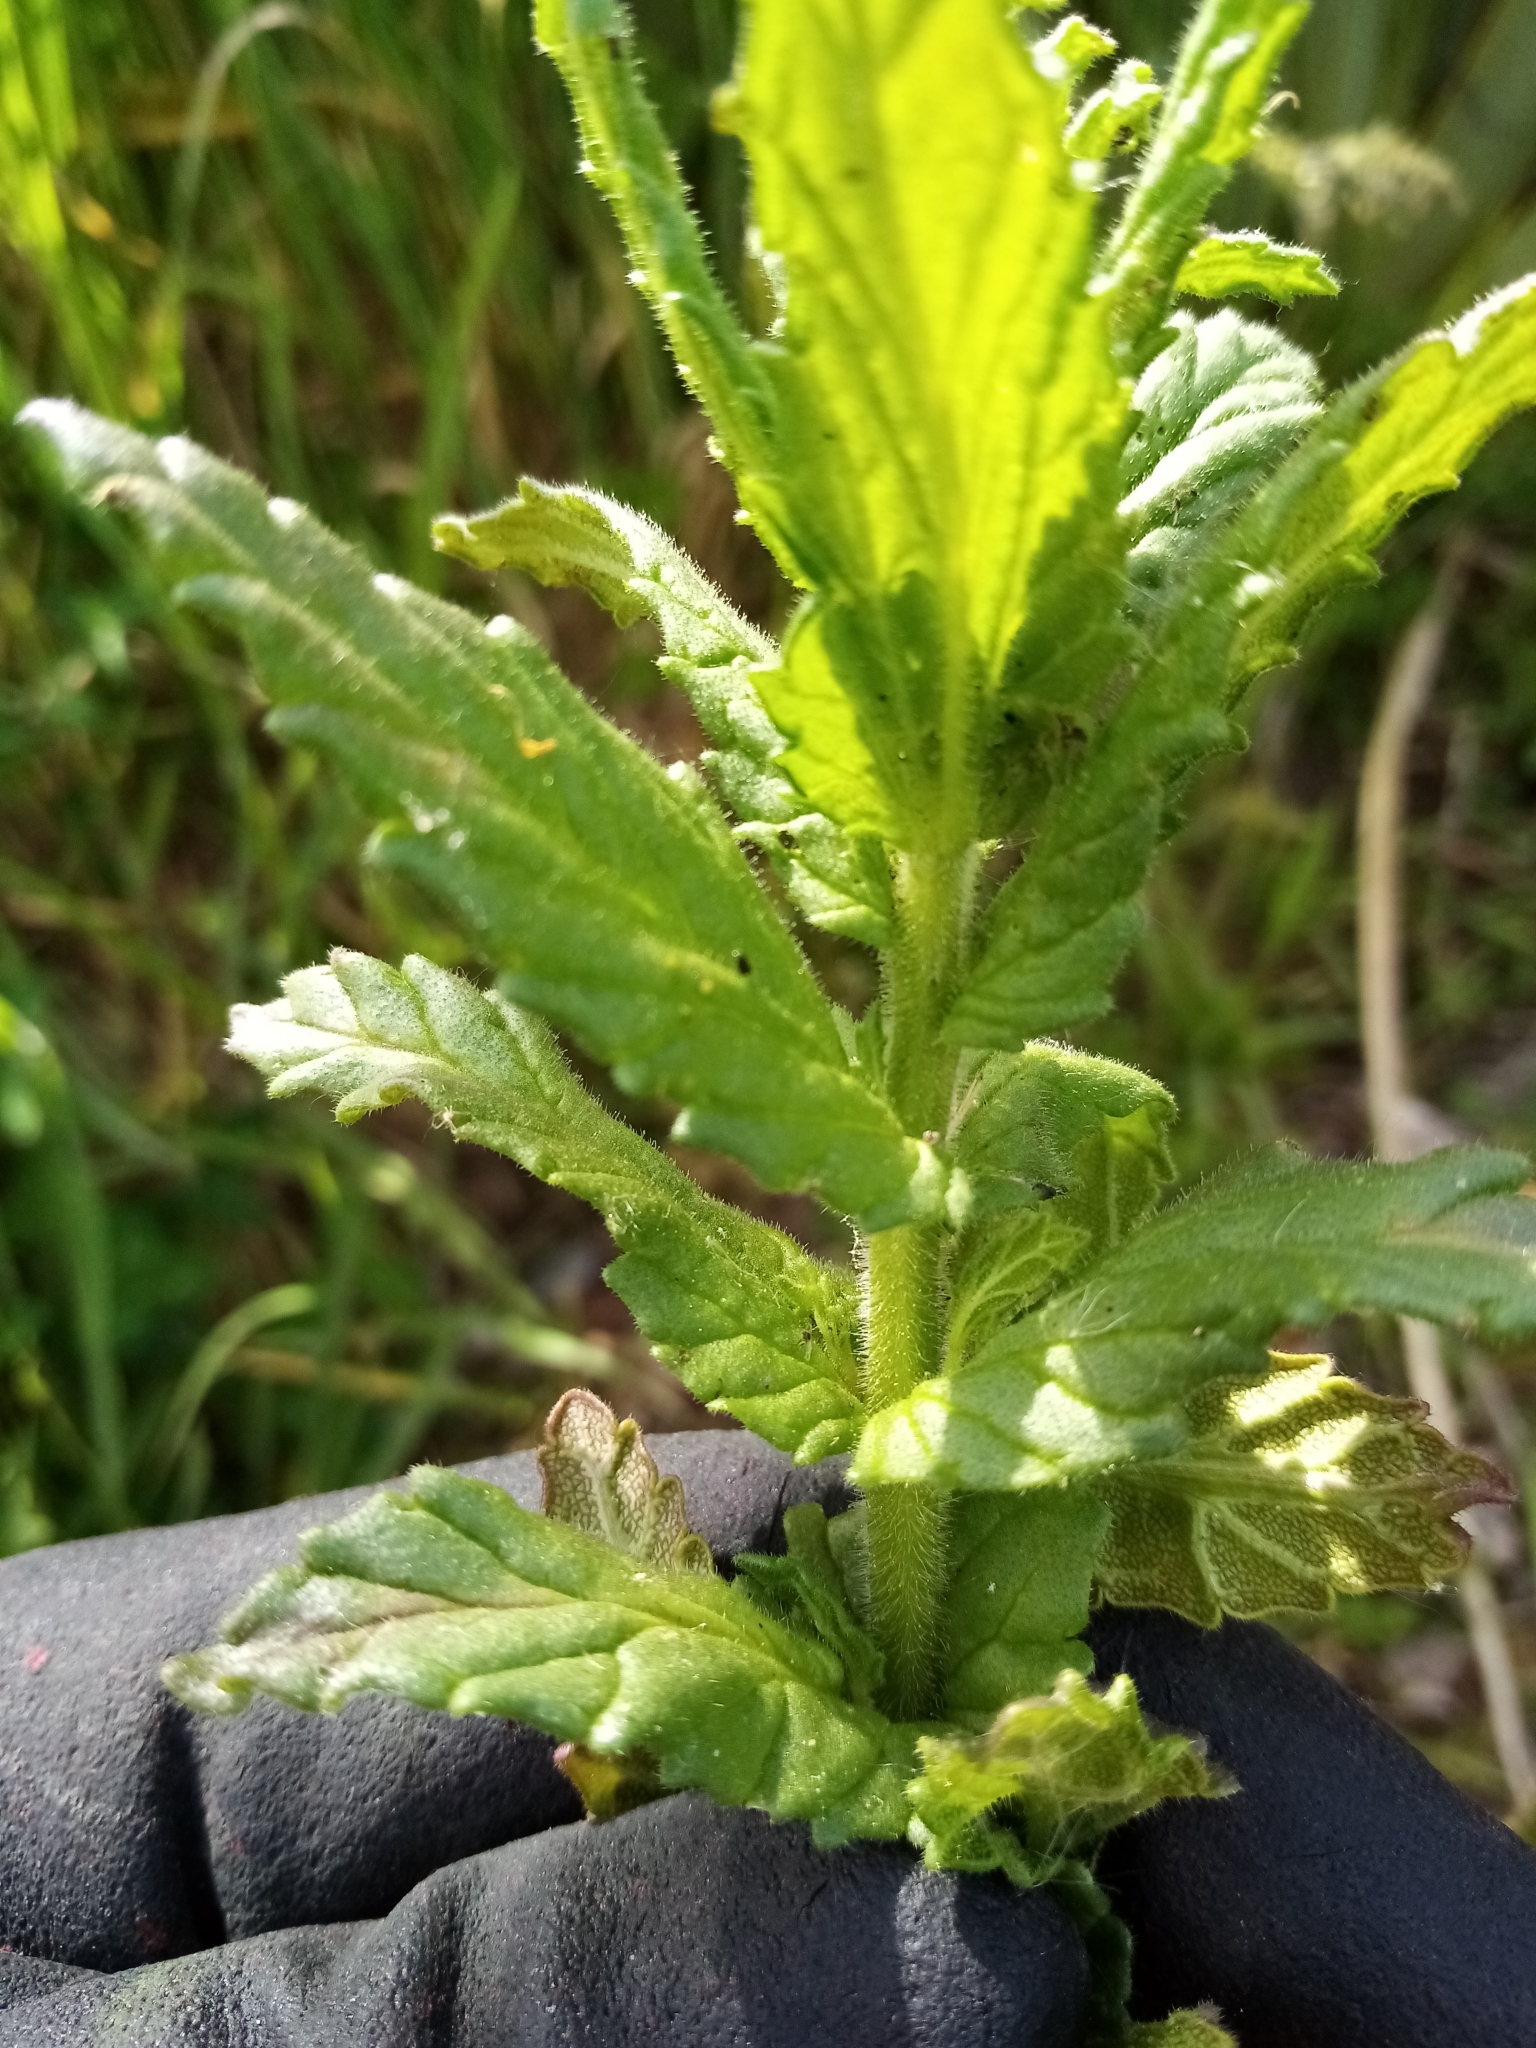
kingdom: Plantae
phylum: Tracheophyta
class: Magnoliopsida
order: Lamiales
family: Orobanchaceae
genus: Bellardia
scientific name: Bellardia viscosa
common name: Sticky parentucellia
